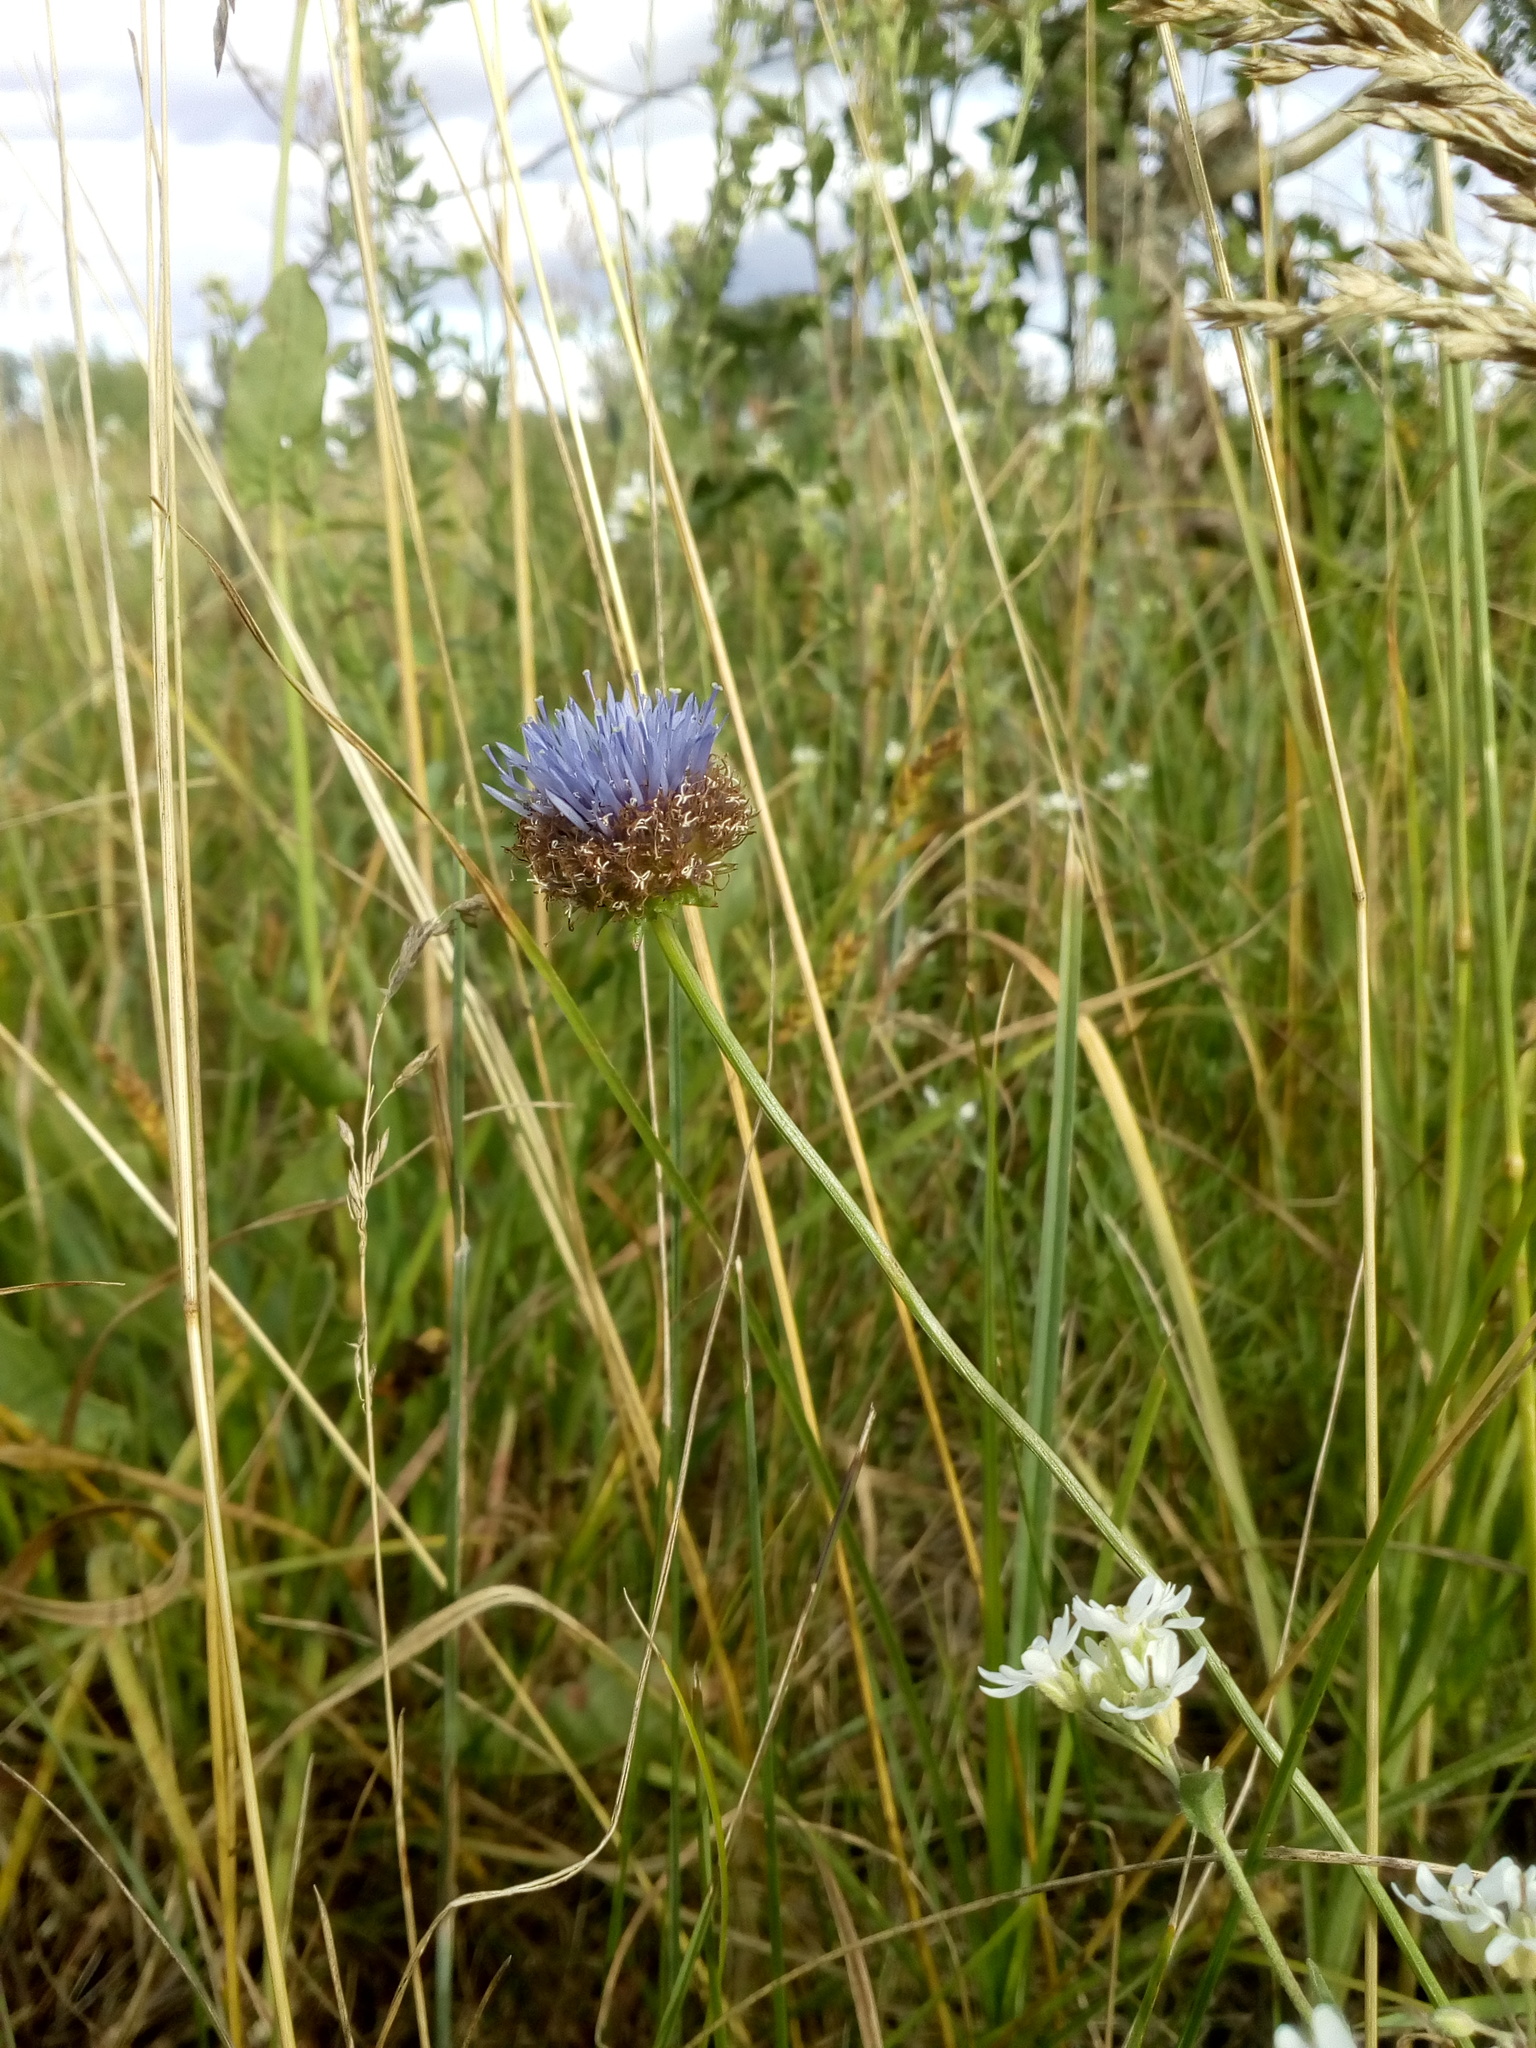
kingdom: Plantae
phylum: Tracheophyta
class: Magnoliopsida
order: Asterales
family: Campanulaceae
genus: Jasione
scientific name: Jasione montana
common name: Sheep's-bit
